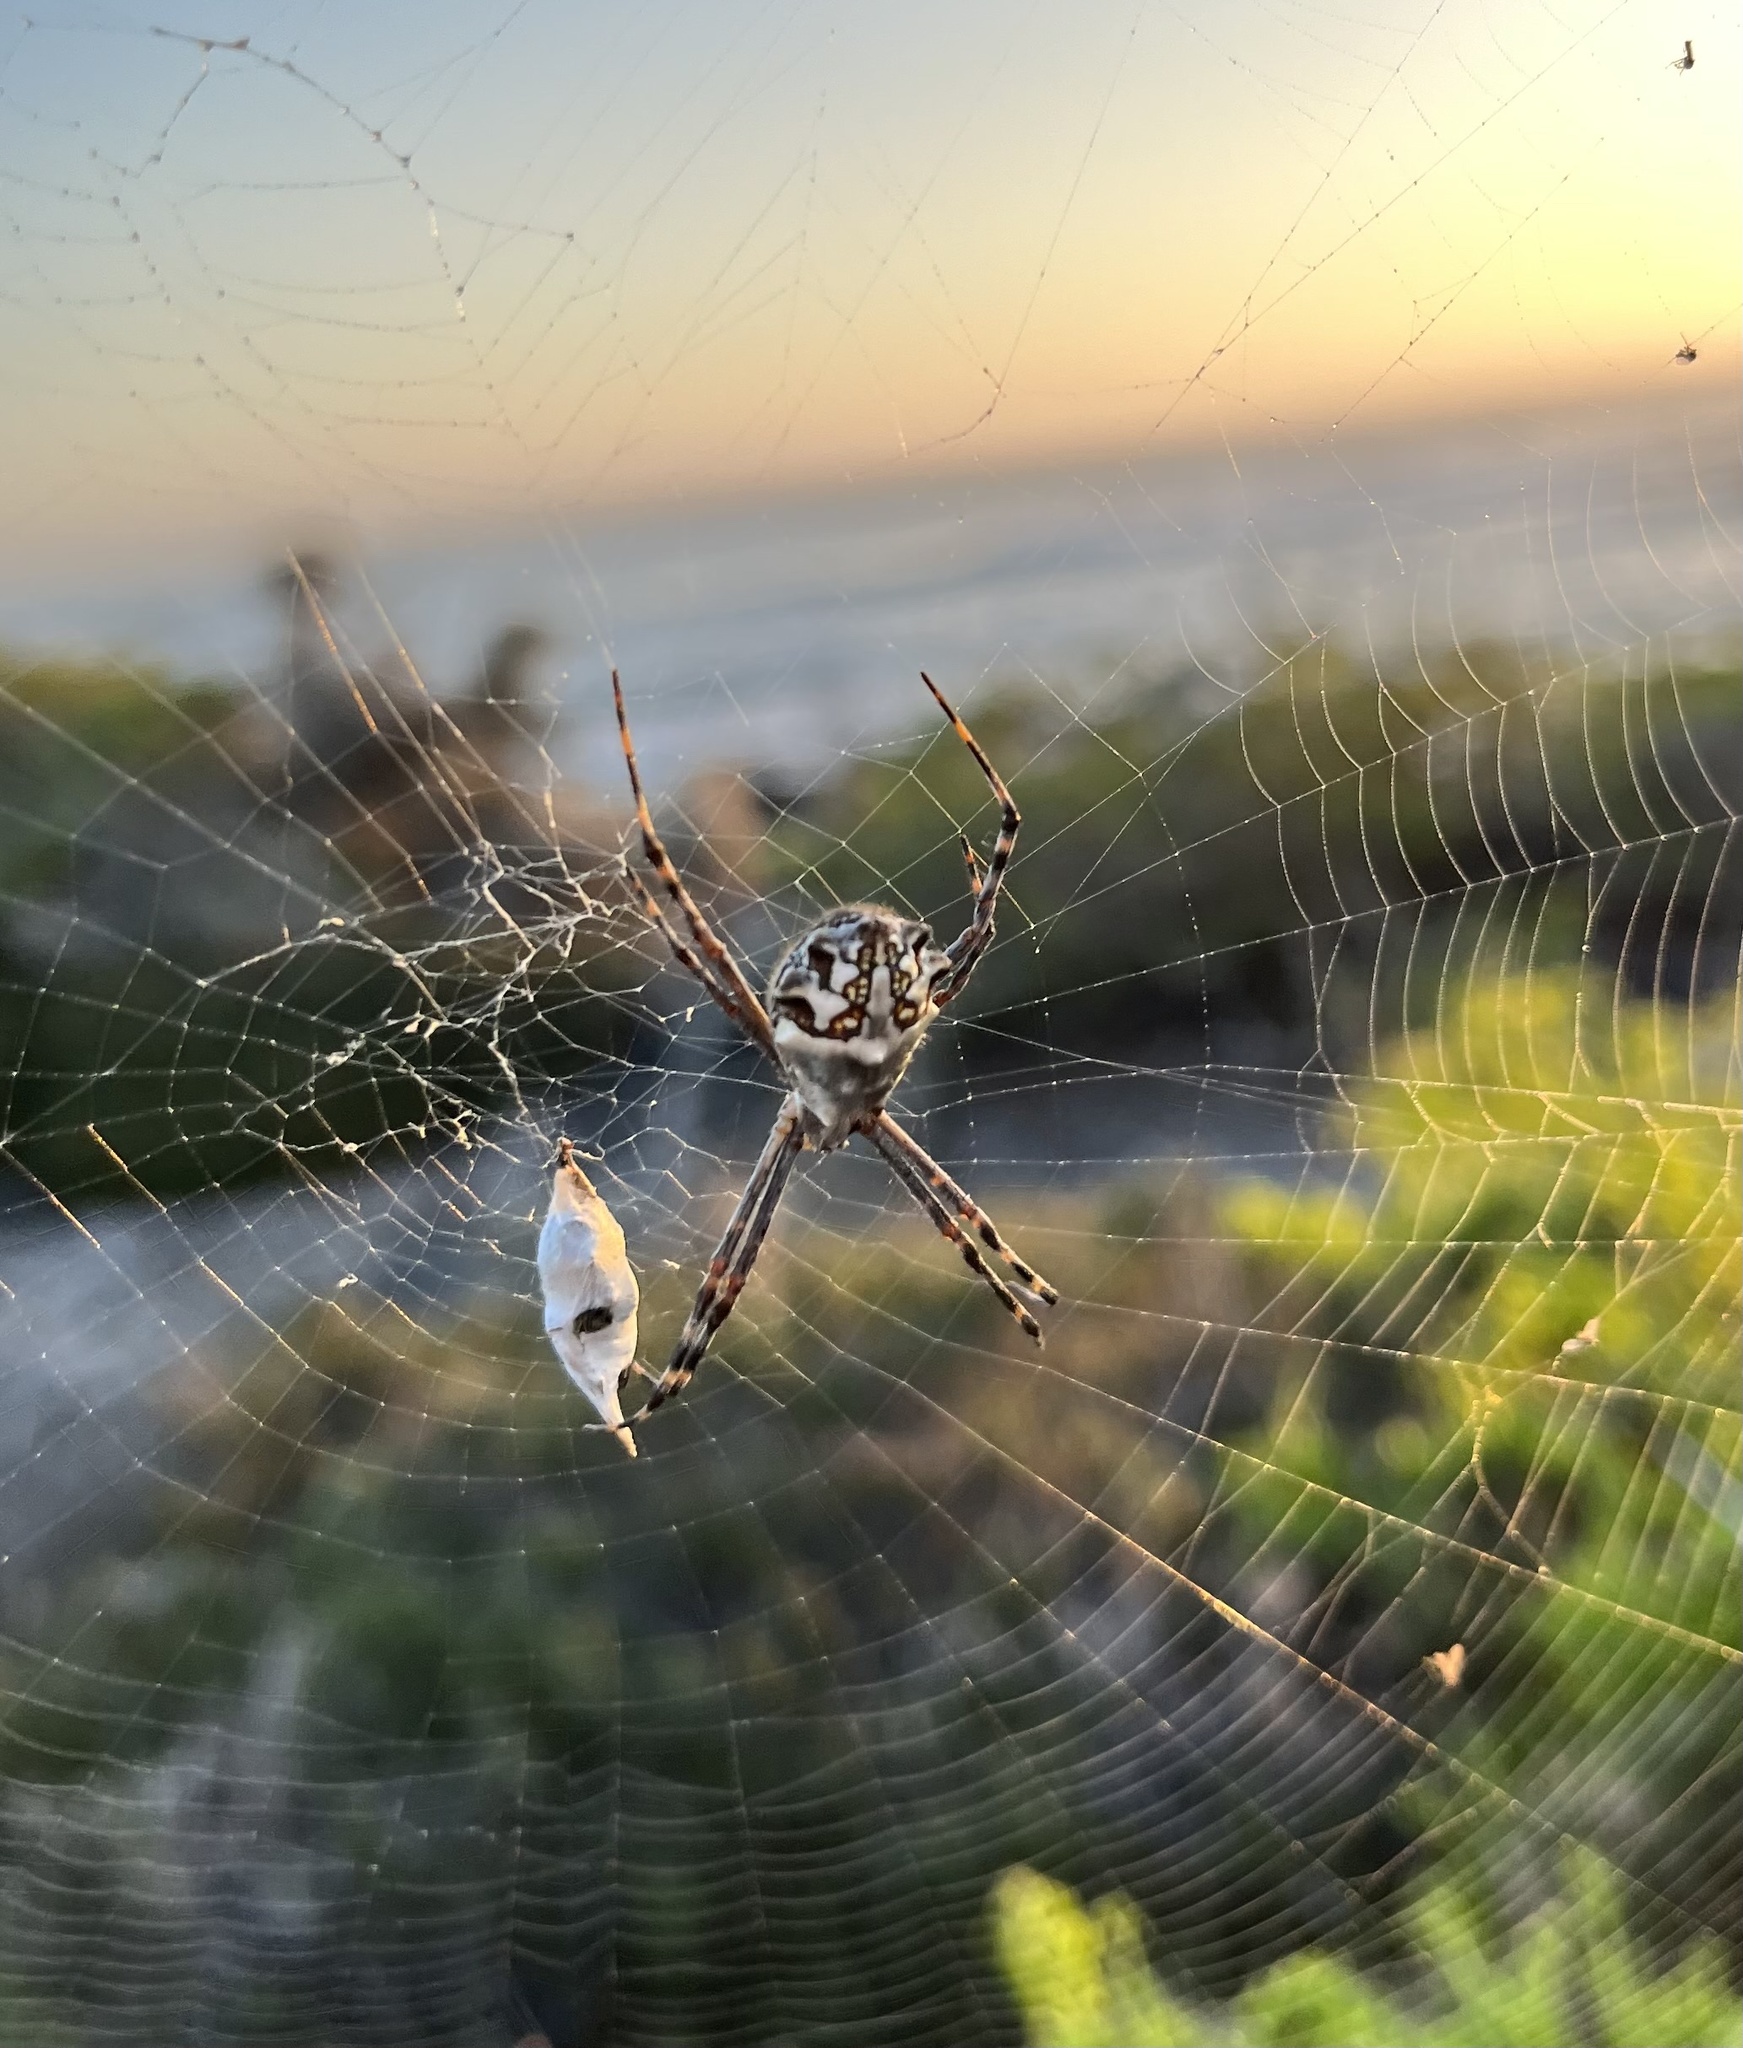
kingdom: Animalia
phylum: Arthropoda
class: Arachnida
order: Araneae
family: Araneidae
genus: Argiope
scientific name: Argiope argentata
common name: Orb weavers
